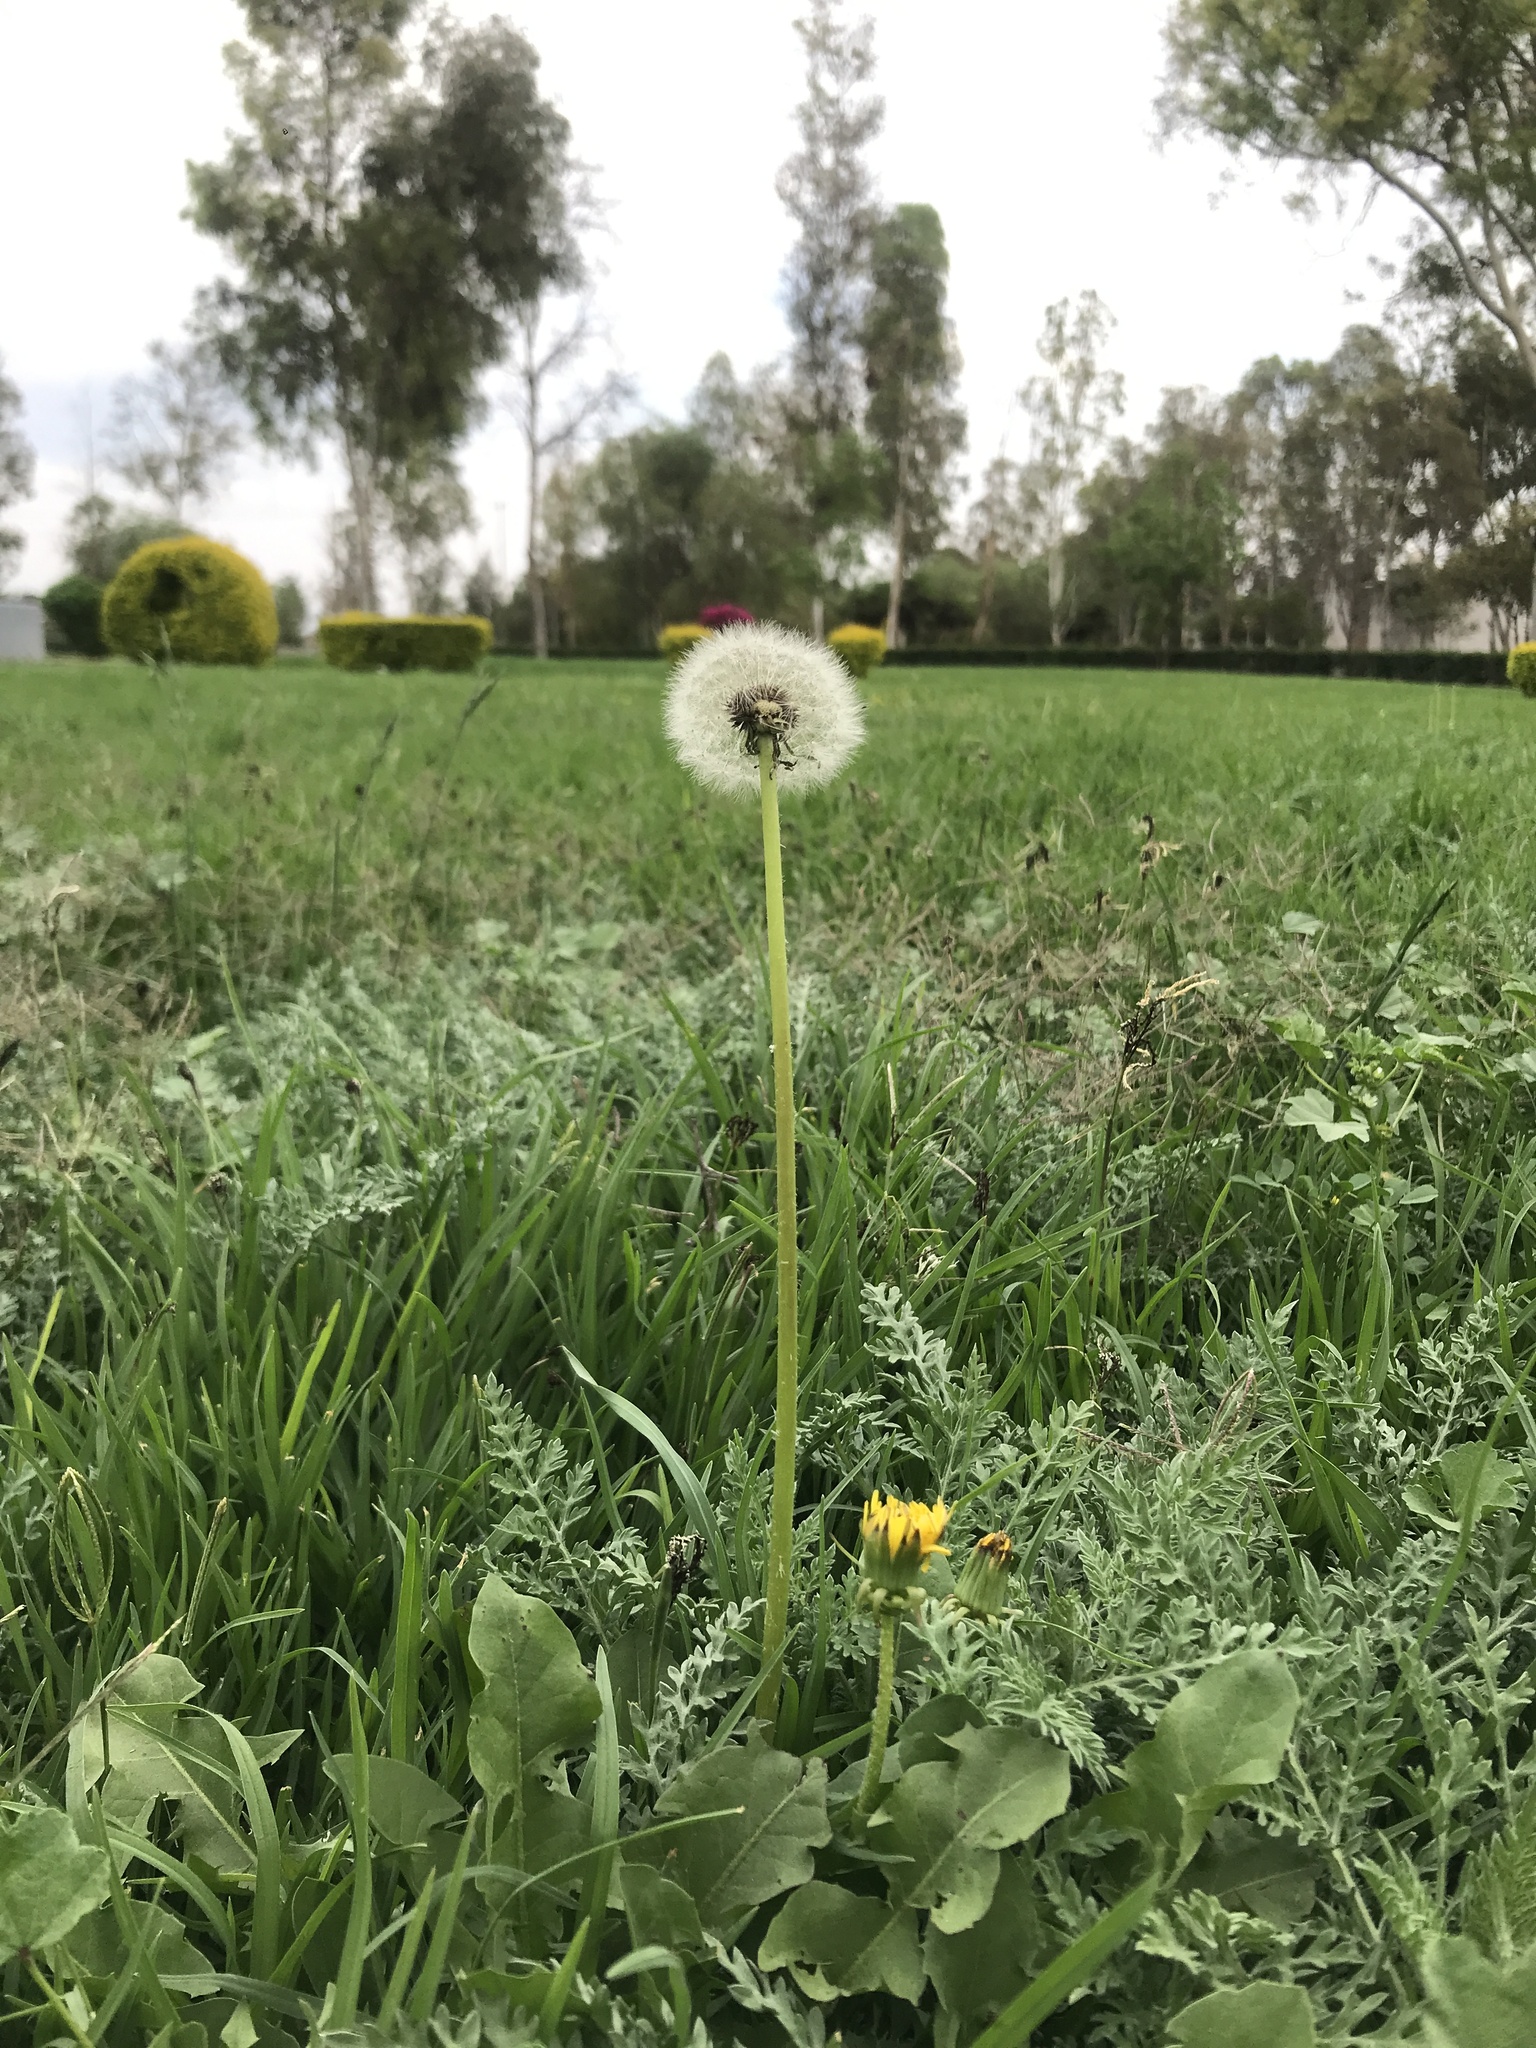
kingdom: Plantae
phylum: Tracheophyta
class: Magnoliopsida
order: Asterales
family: Asteraceae
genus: Taraxacum
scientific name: Taraxacum officinale
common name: Common dandelion
